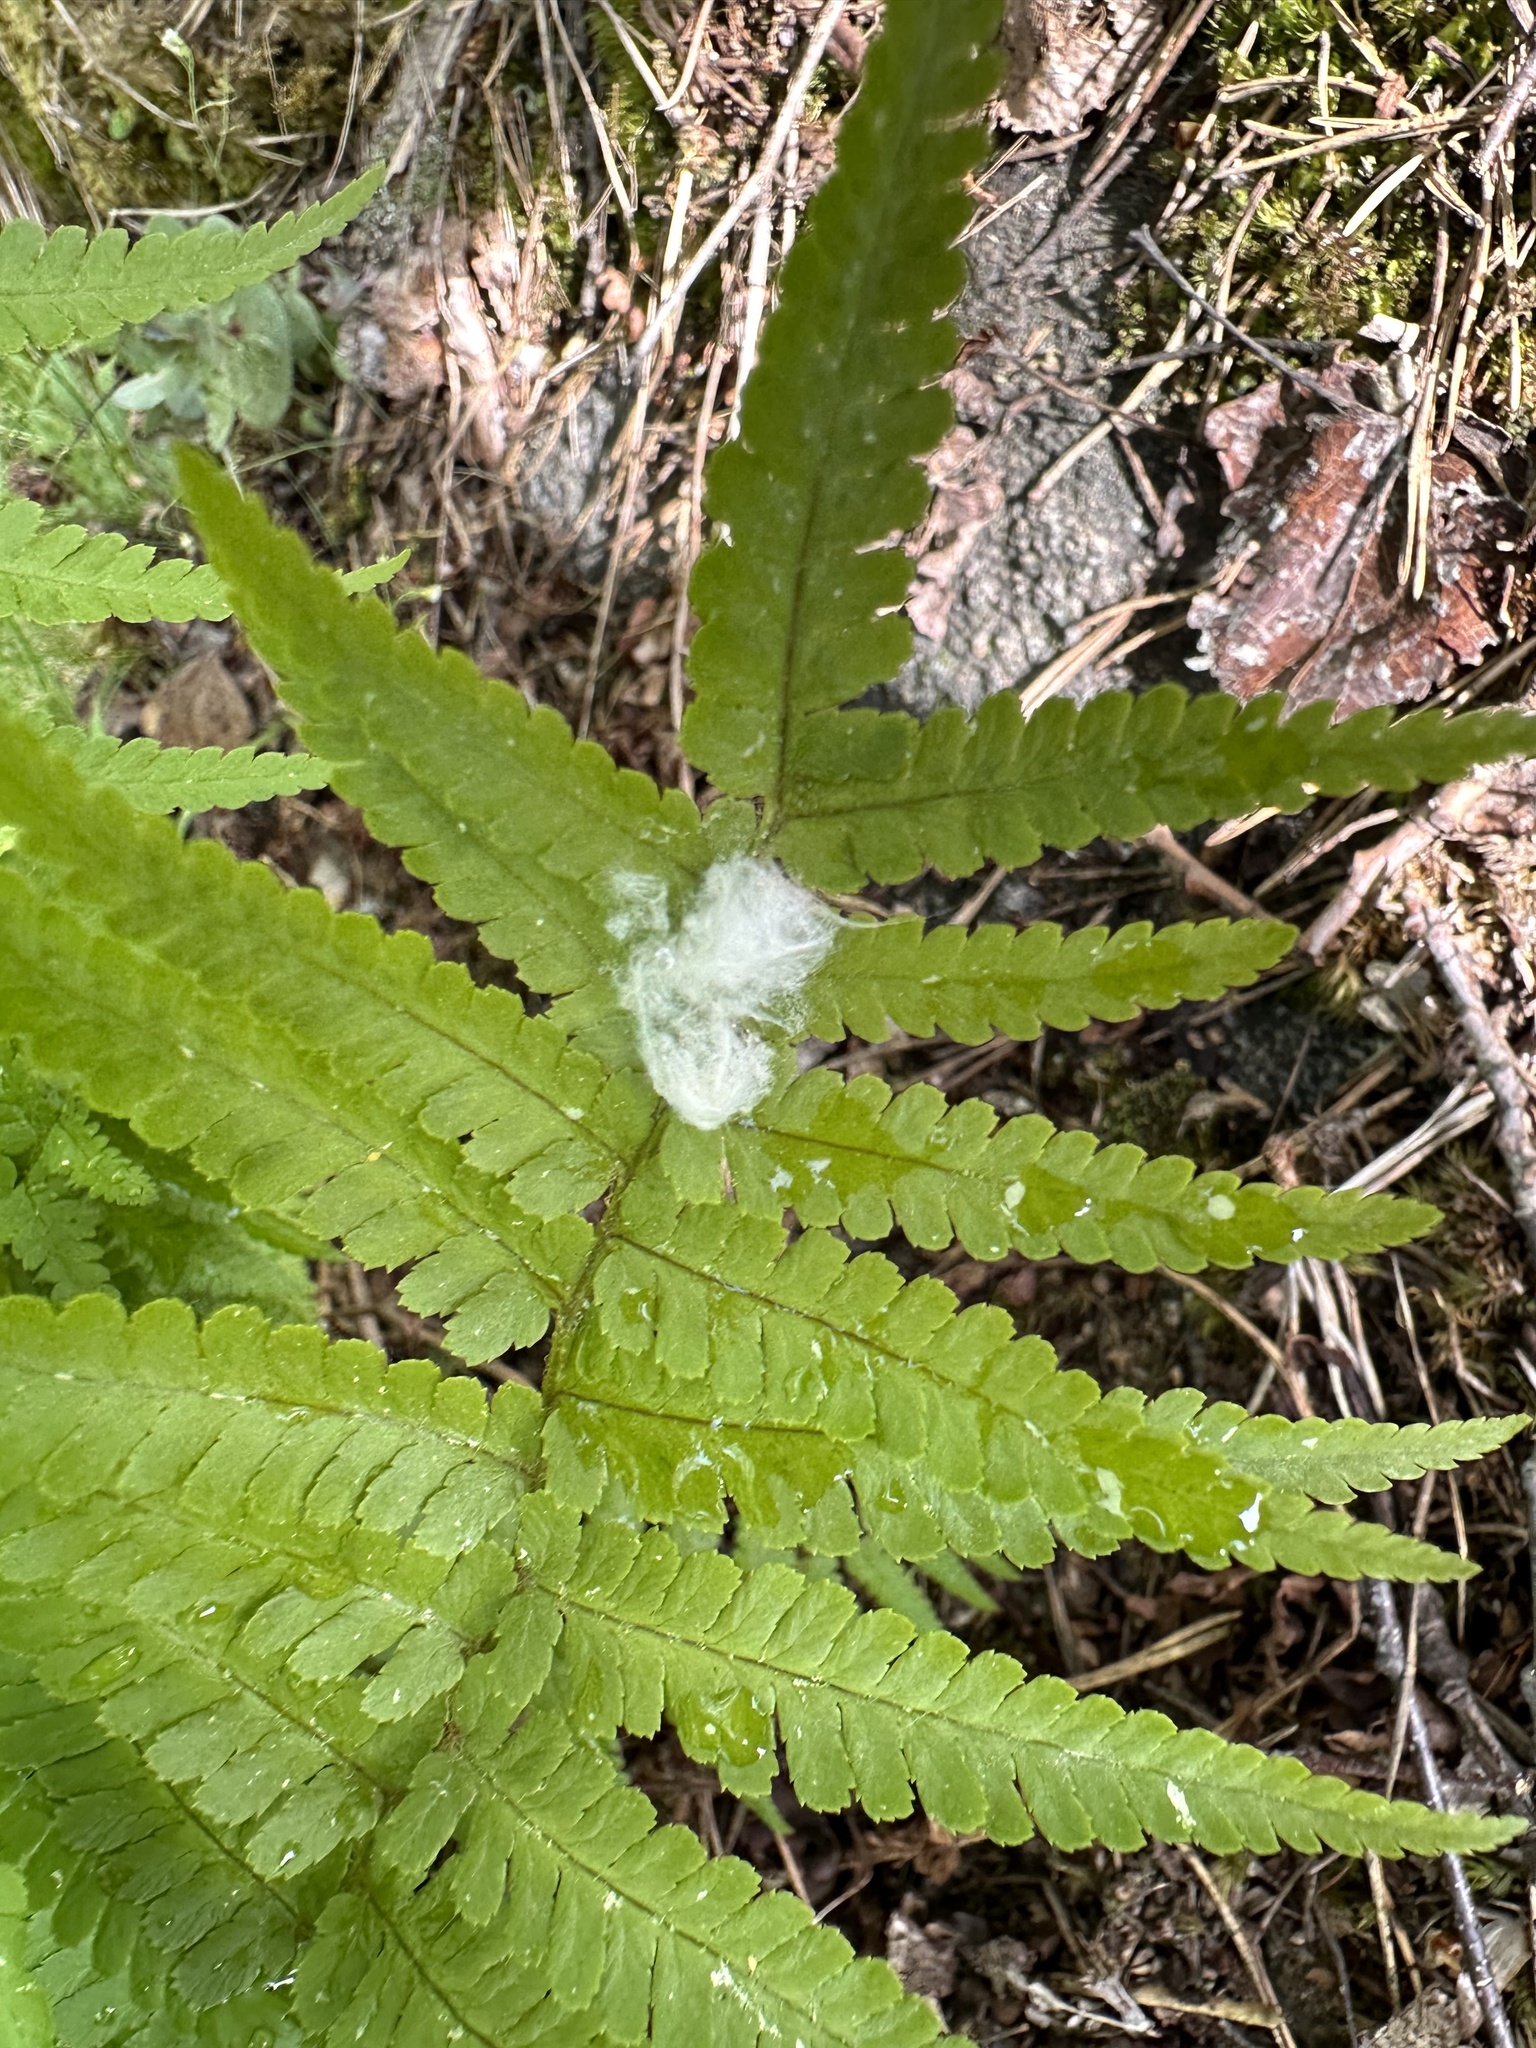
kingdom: Plantae
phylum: Tracheophyta
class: Polypodiopsida
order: Polypodiales
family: Dryopteridaceae
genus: Dryopteris
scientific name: Dryopteris filix-mas
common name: Male fern
